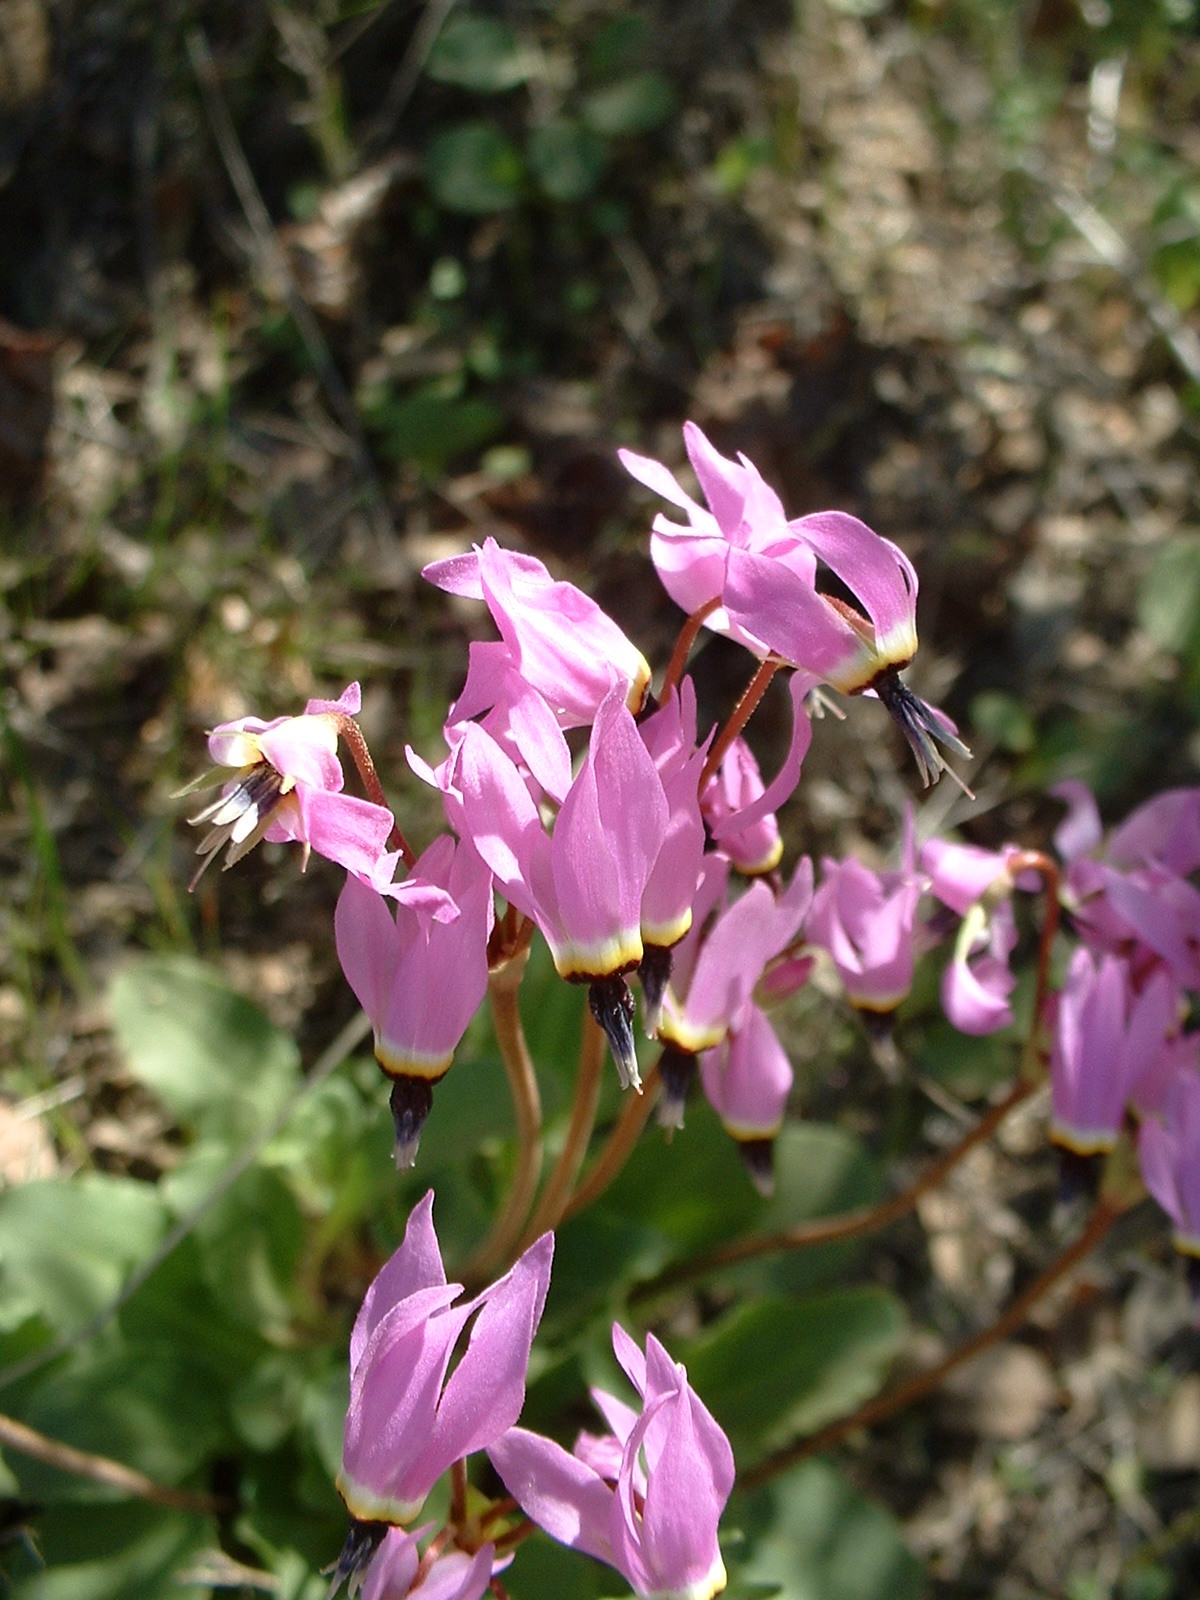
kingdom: Plantae
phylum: Tracheophyta
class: Magnoliopsida
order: Ericales
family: Primulaceae
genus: Dodecatheon
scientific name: Dodecatheon hendersonii
